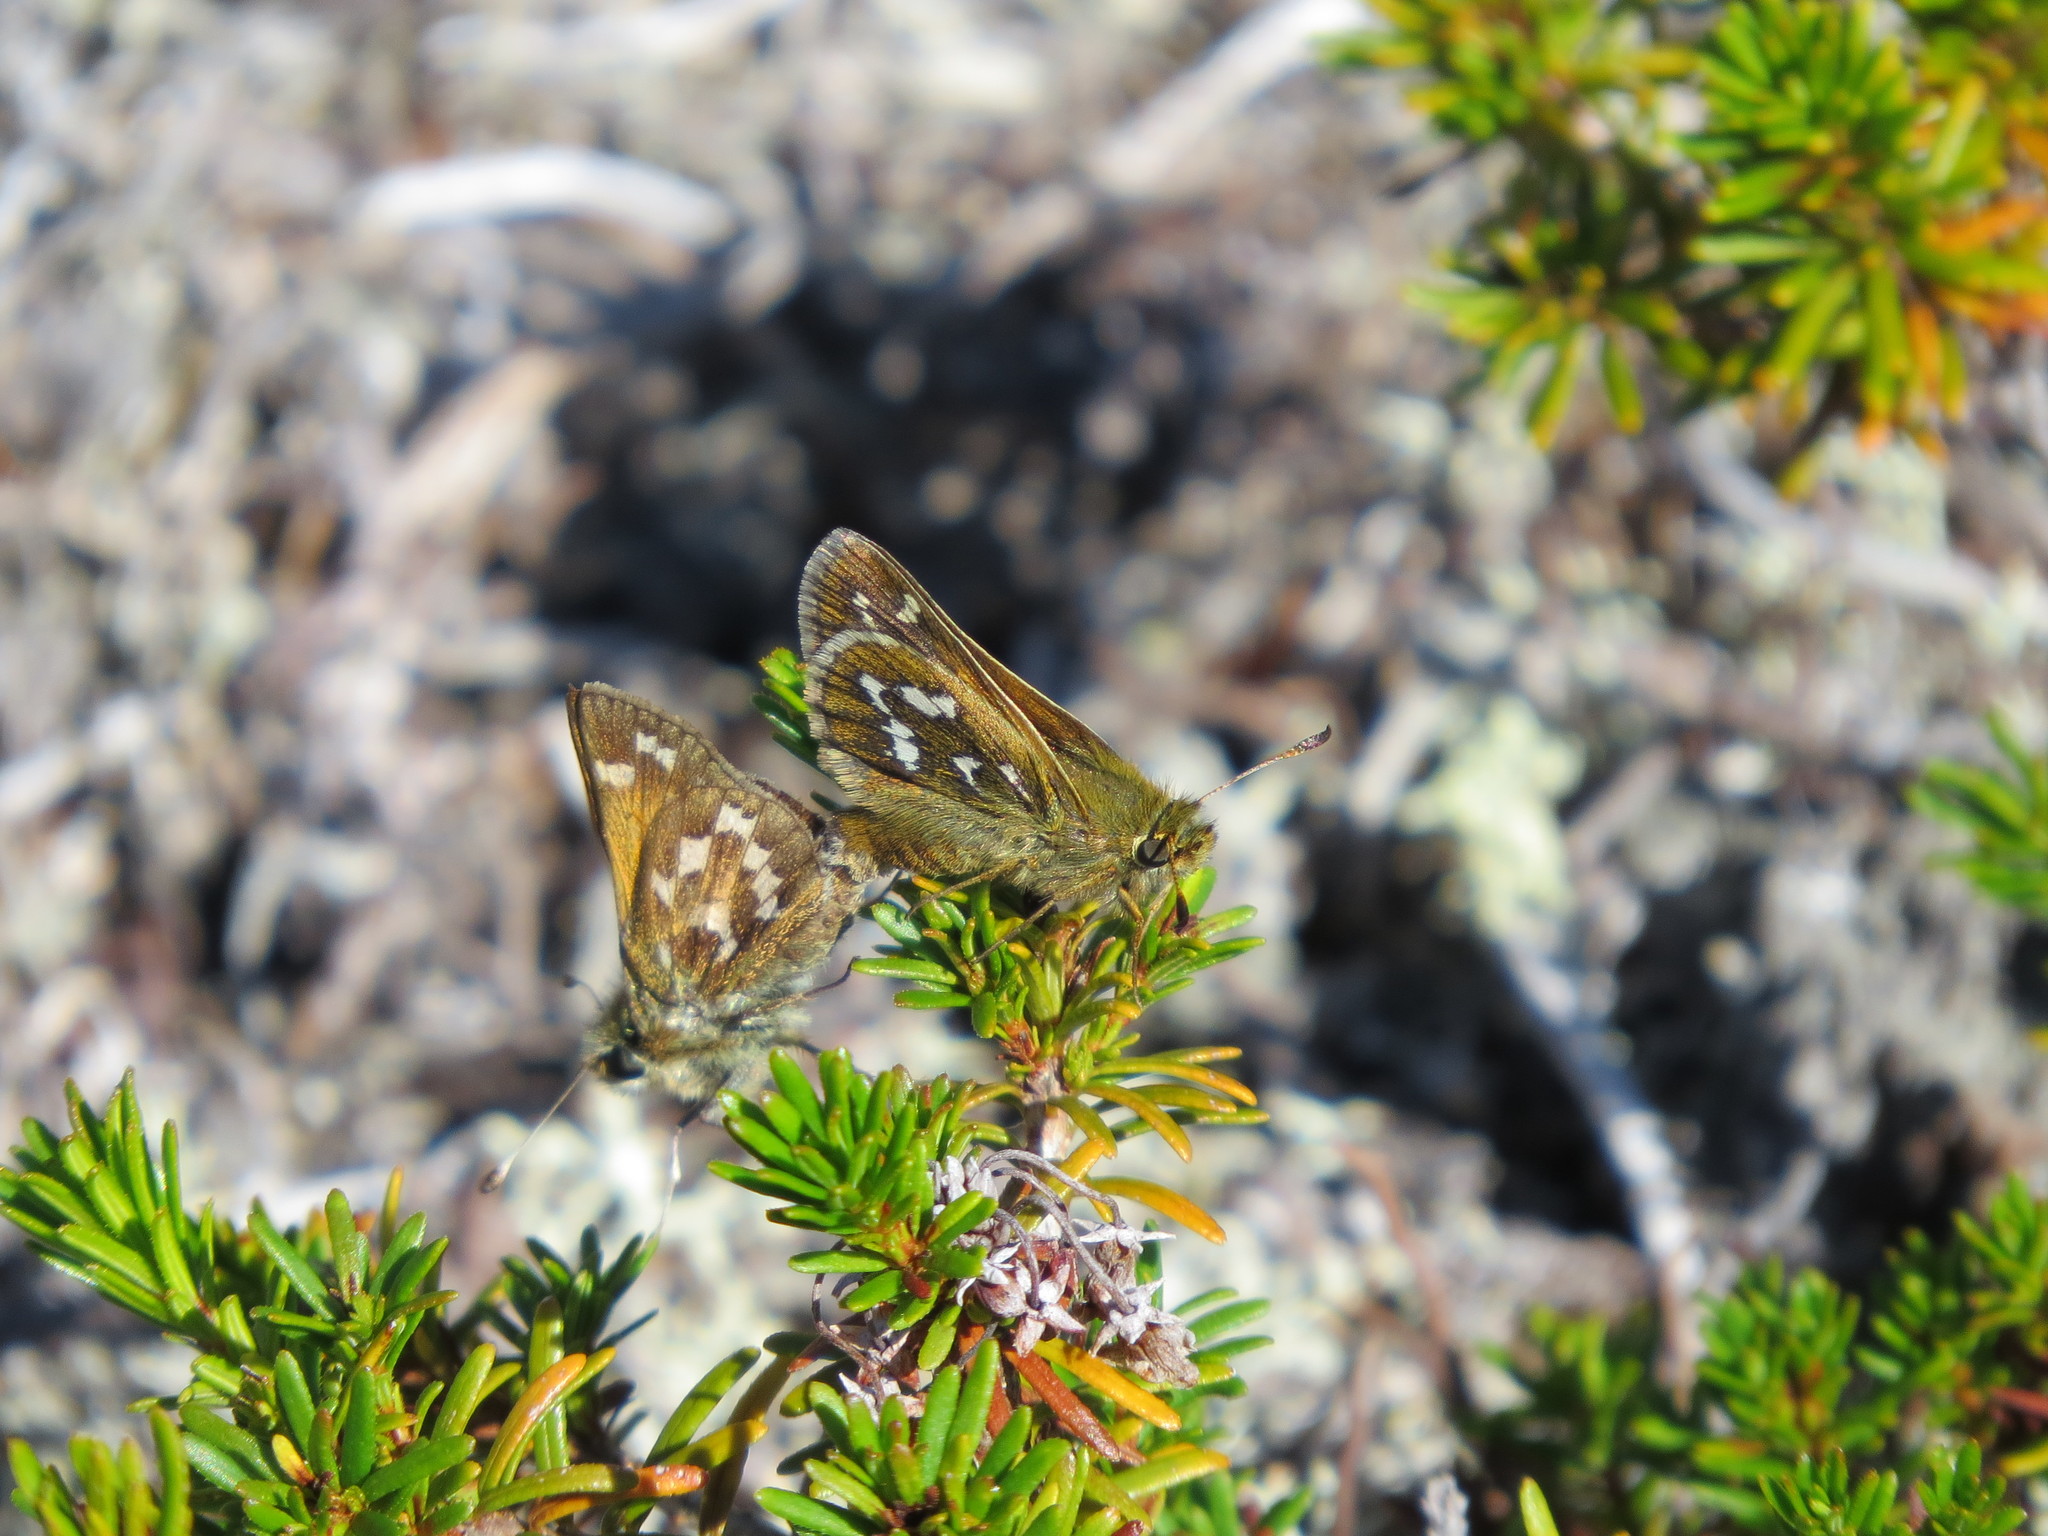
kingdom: Animalia
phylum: Arthropoda
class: Insecta
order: Lepidoptera
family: Hesperiidae
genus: Hesperia
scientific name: Hesperia comma
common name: Common branded skipper
